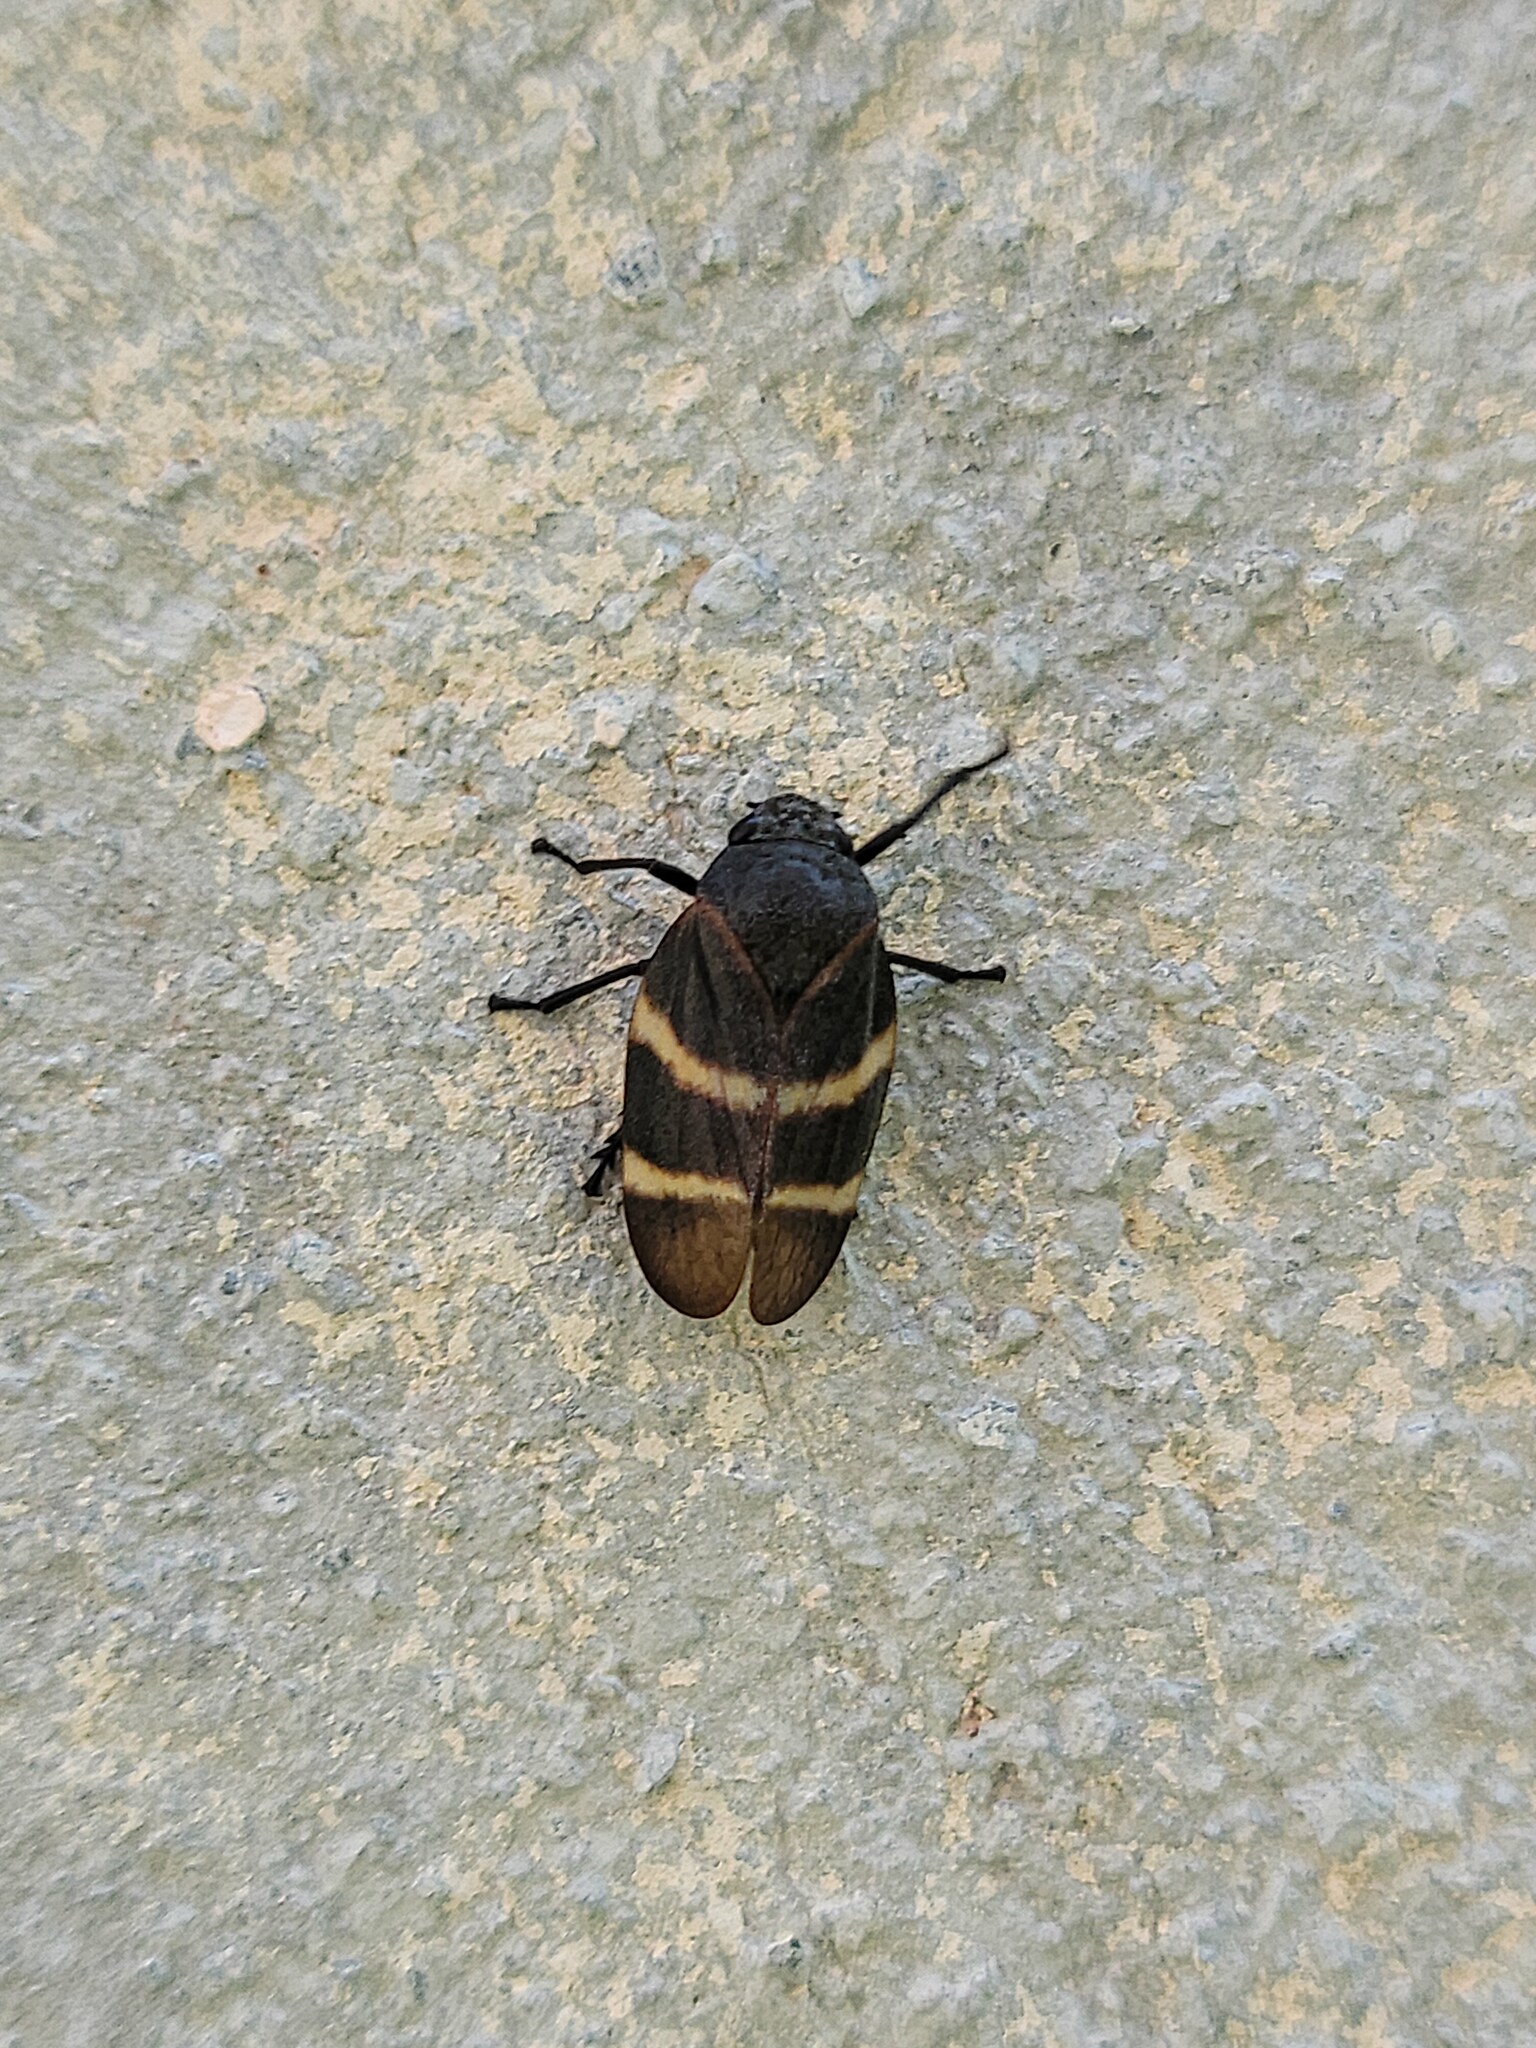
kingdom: Animalia
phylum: Arthropoda
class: Insecta
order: Hemiptera
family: Cercopidae
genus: Aeneolamia
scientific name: Aeneolamia albofasciata
